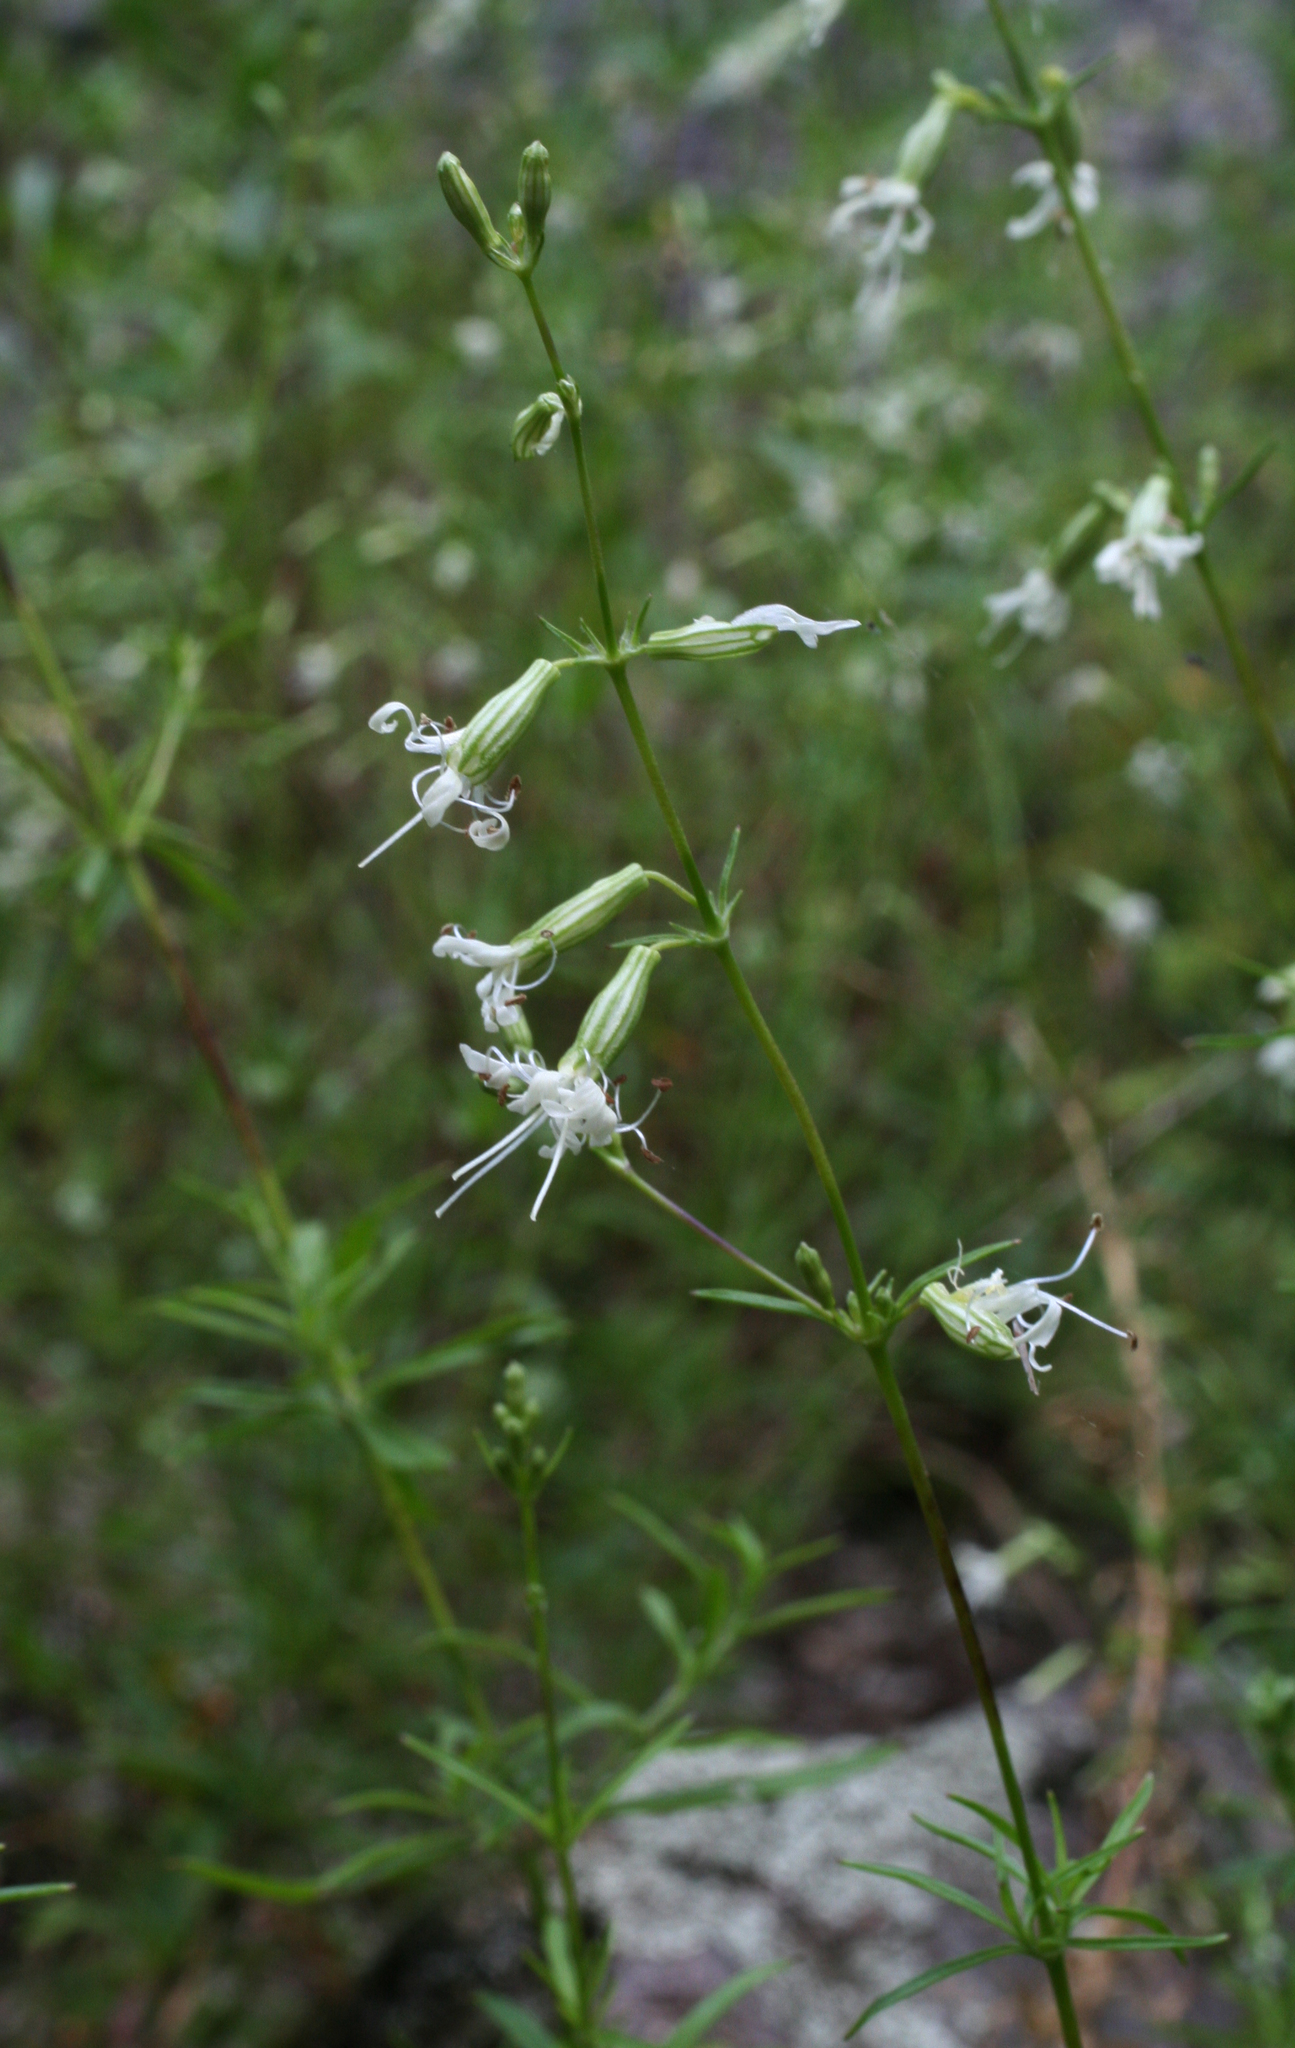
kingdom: Plantae
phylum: Tracheophyta
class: Magnoliopsida
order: Caryophyllales
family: Caryophyllaceae
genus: Silene
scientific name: Silene foliosa
